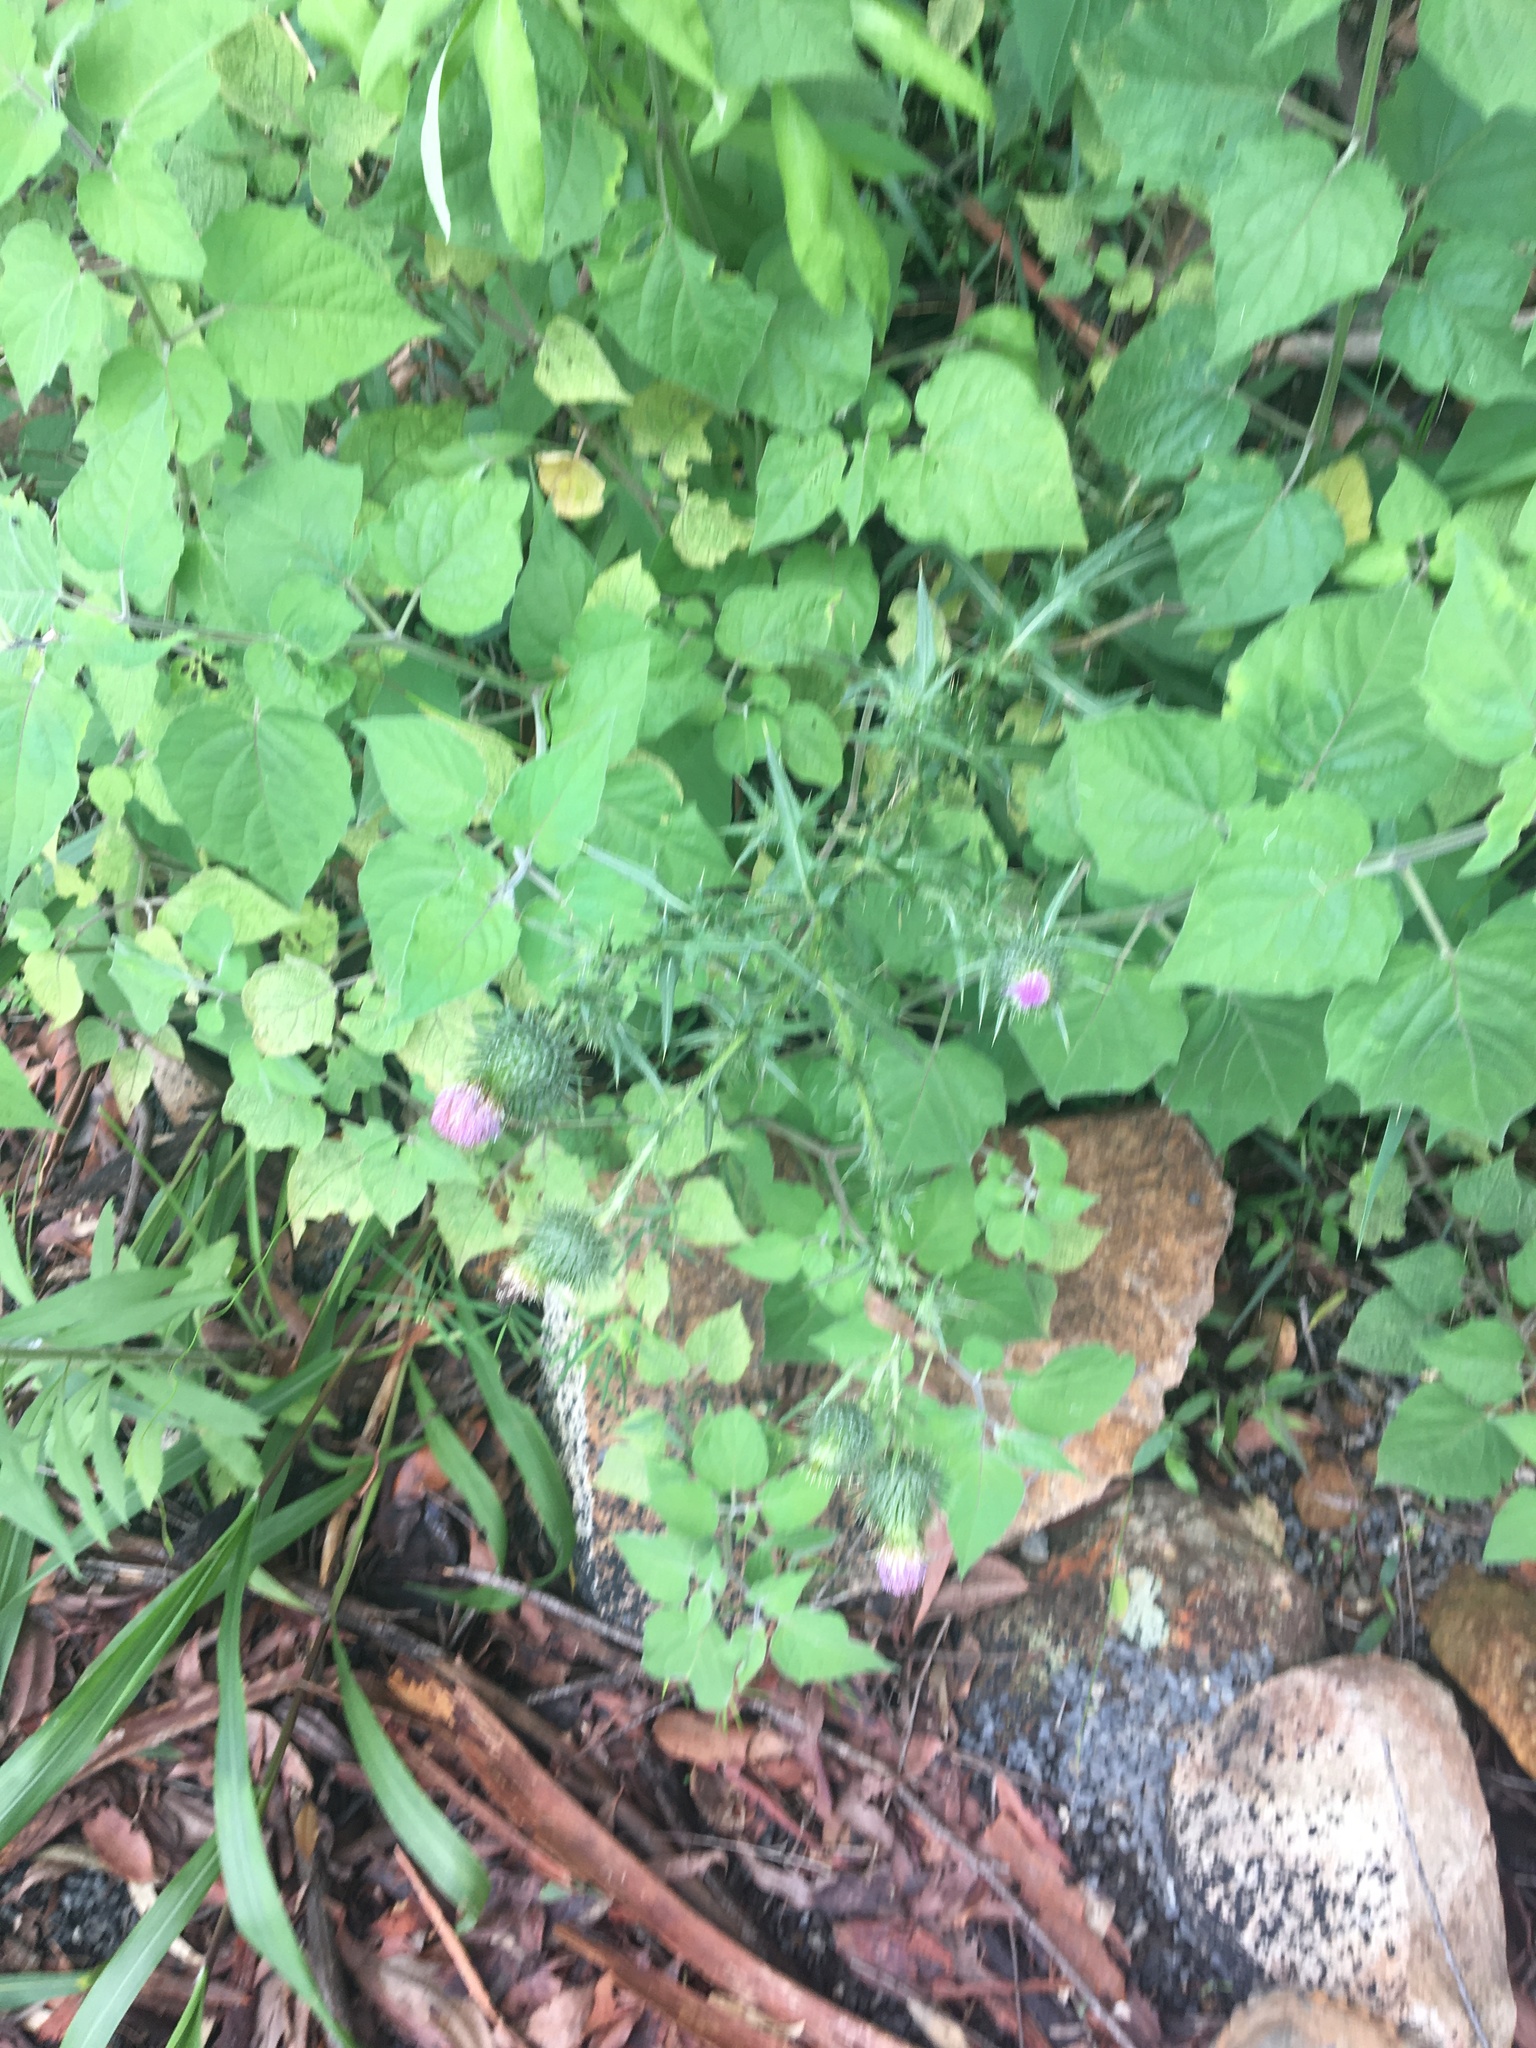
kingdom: Plantae
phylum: Tracheophyta
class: Magnoliopsida
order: Asterales
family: Asteraceae
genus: Cirsium
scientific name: Cirsium vulgare
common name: Bull thistle
